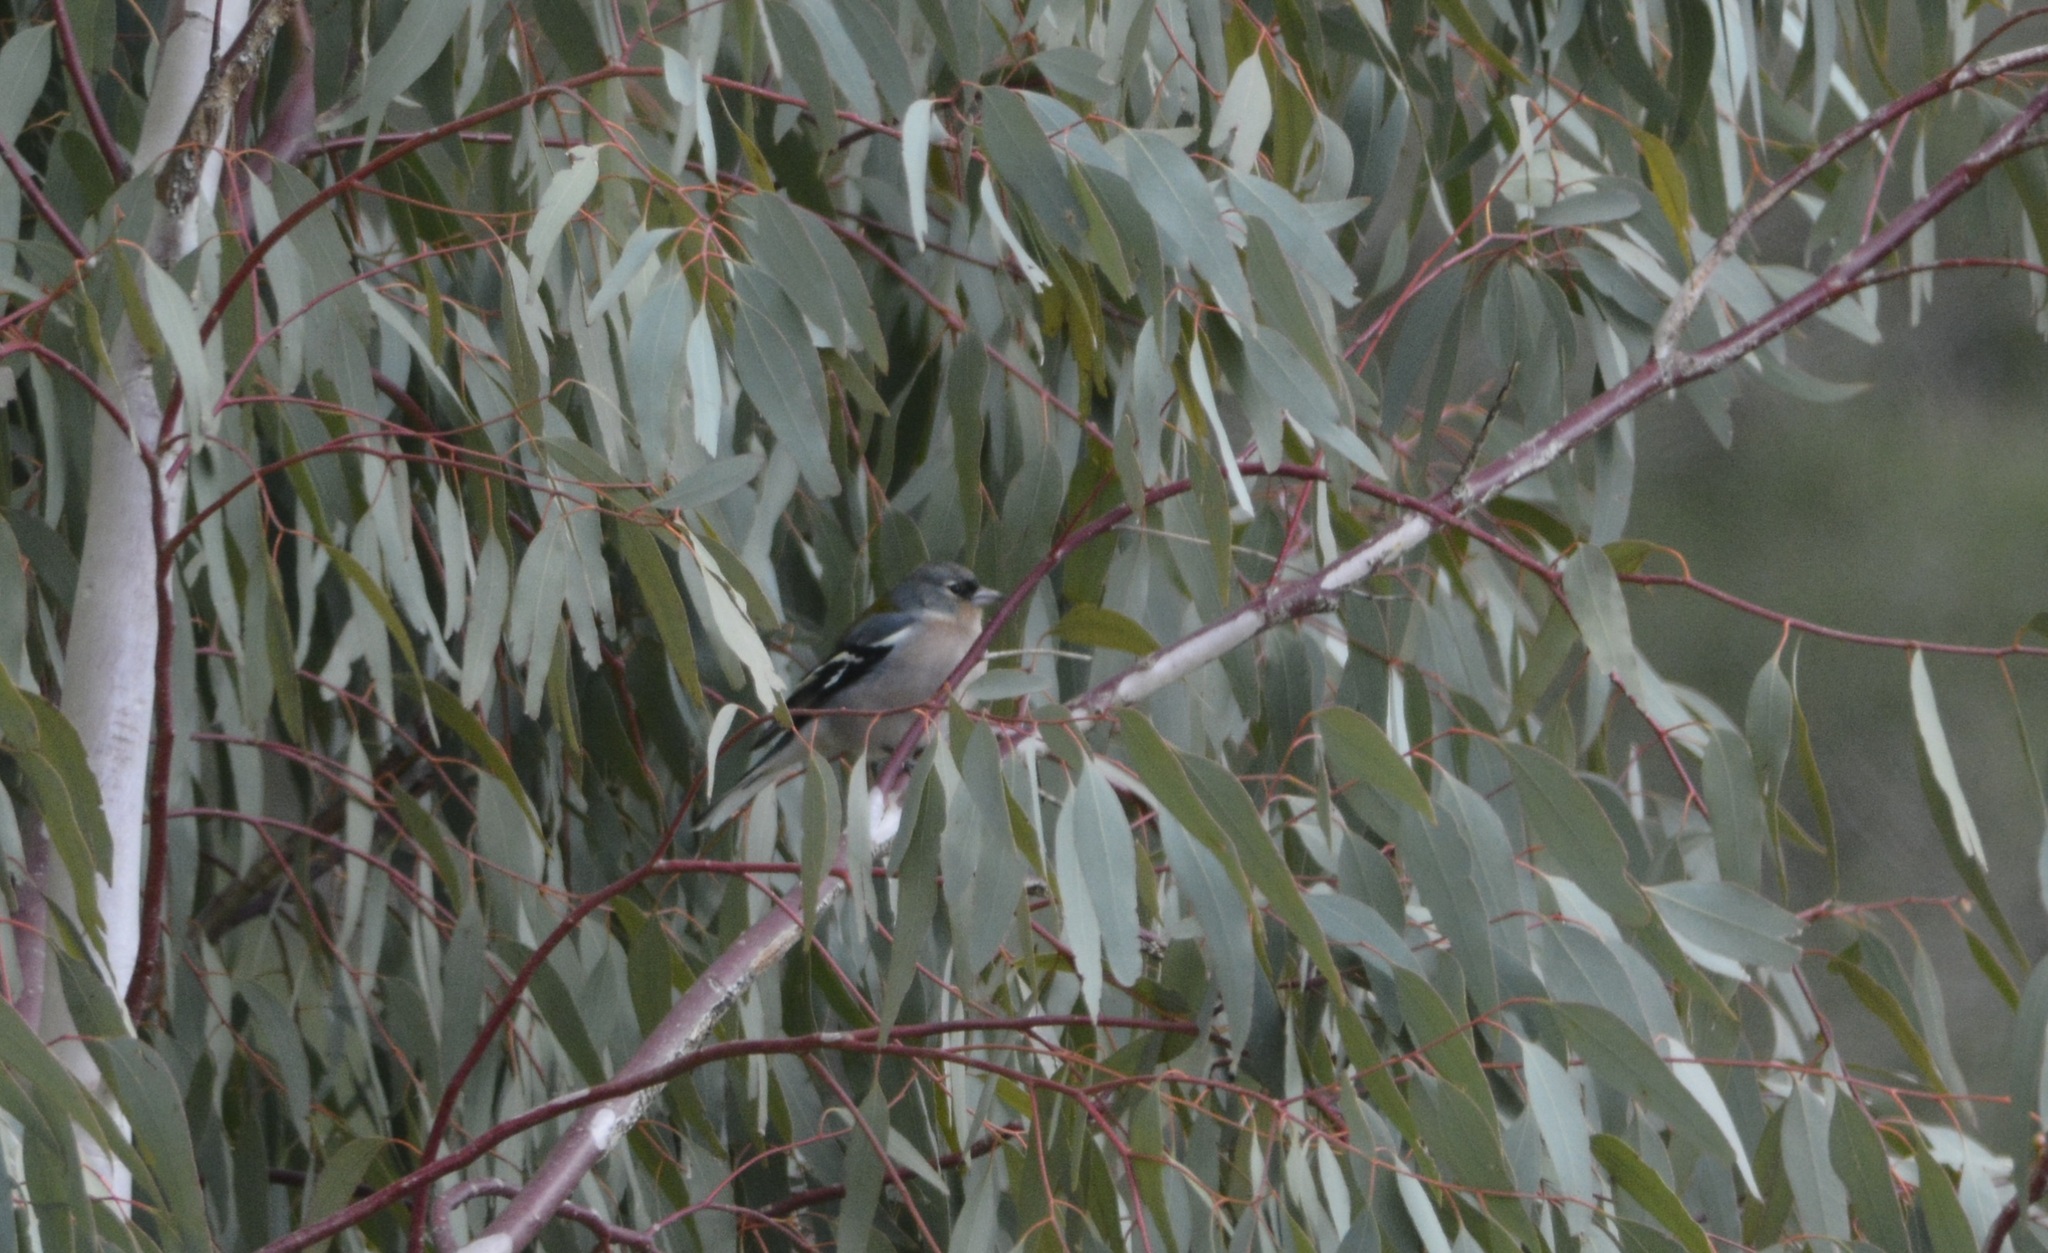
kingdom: Animalia
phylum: Chordata
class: Aves
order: Passeriformes
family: Fringillidae
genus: Fringilla
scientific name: Fringilla spodiogenys
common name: African chaffinch
